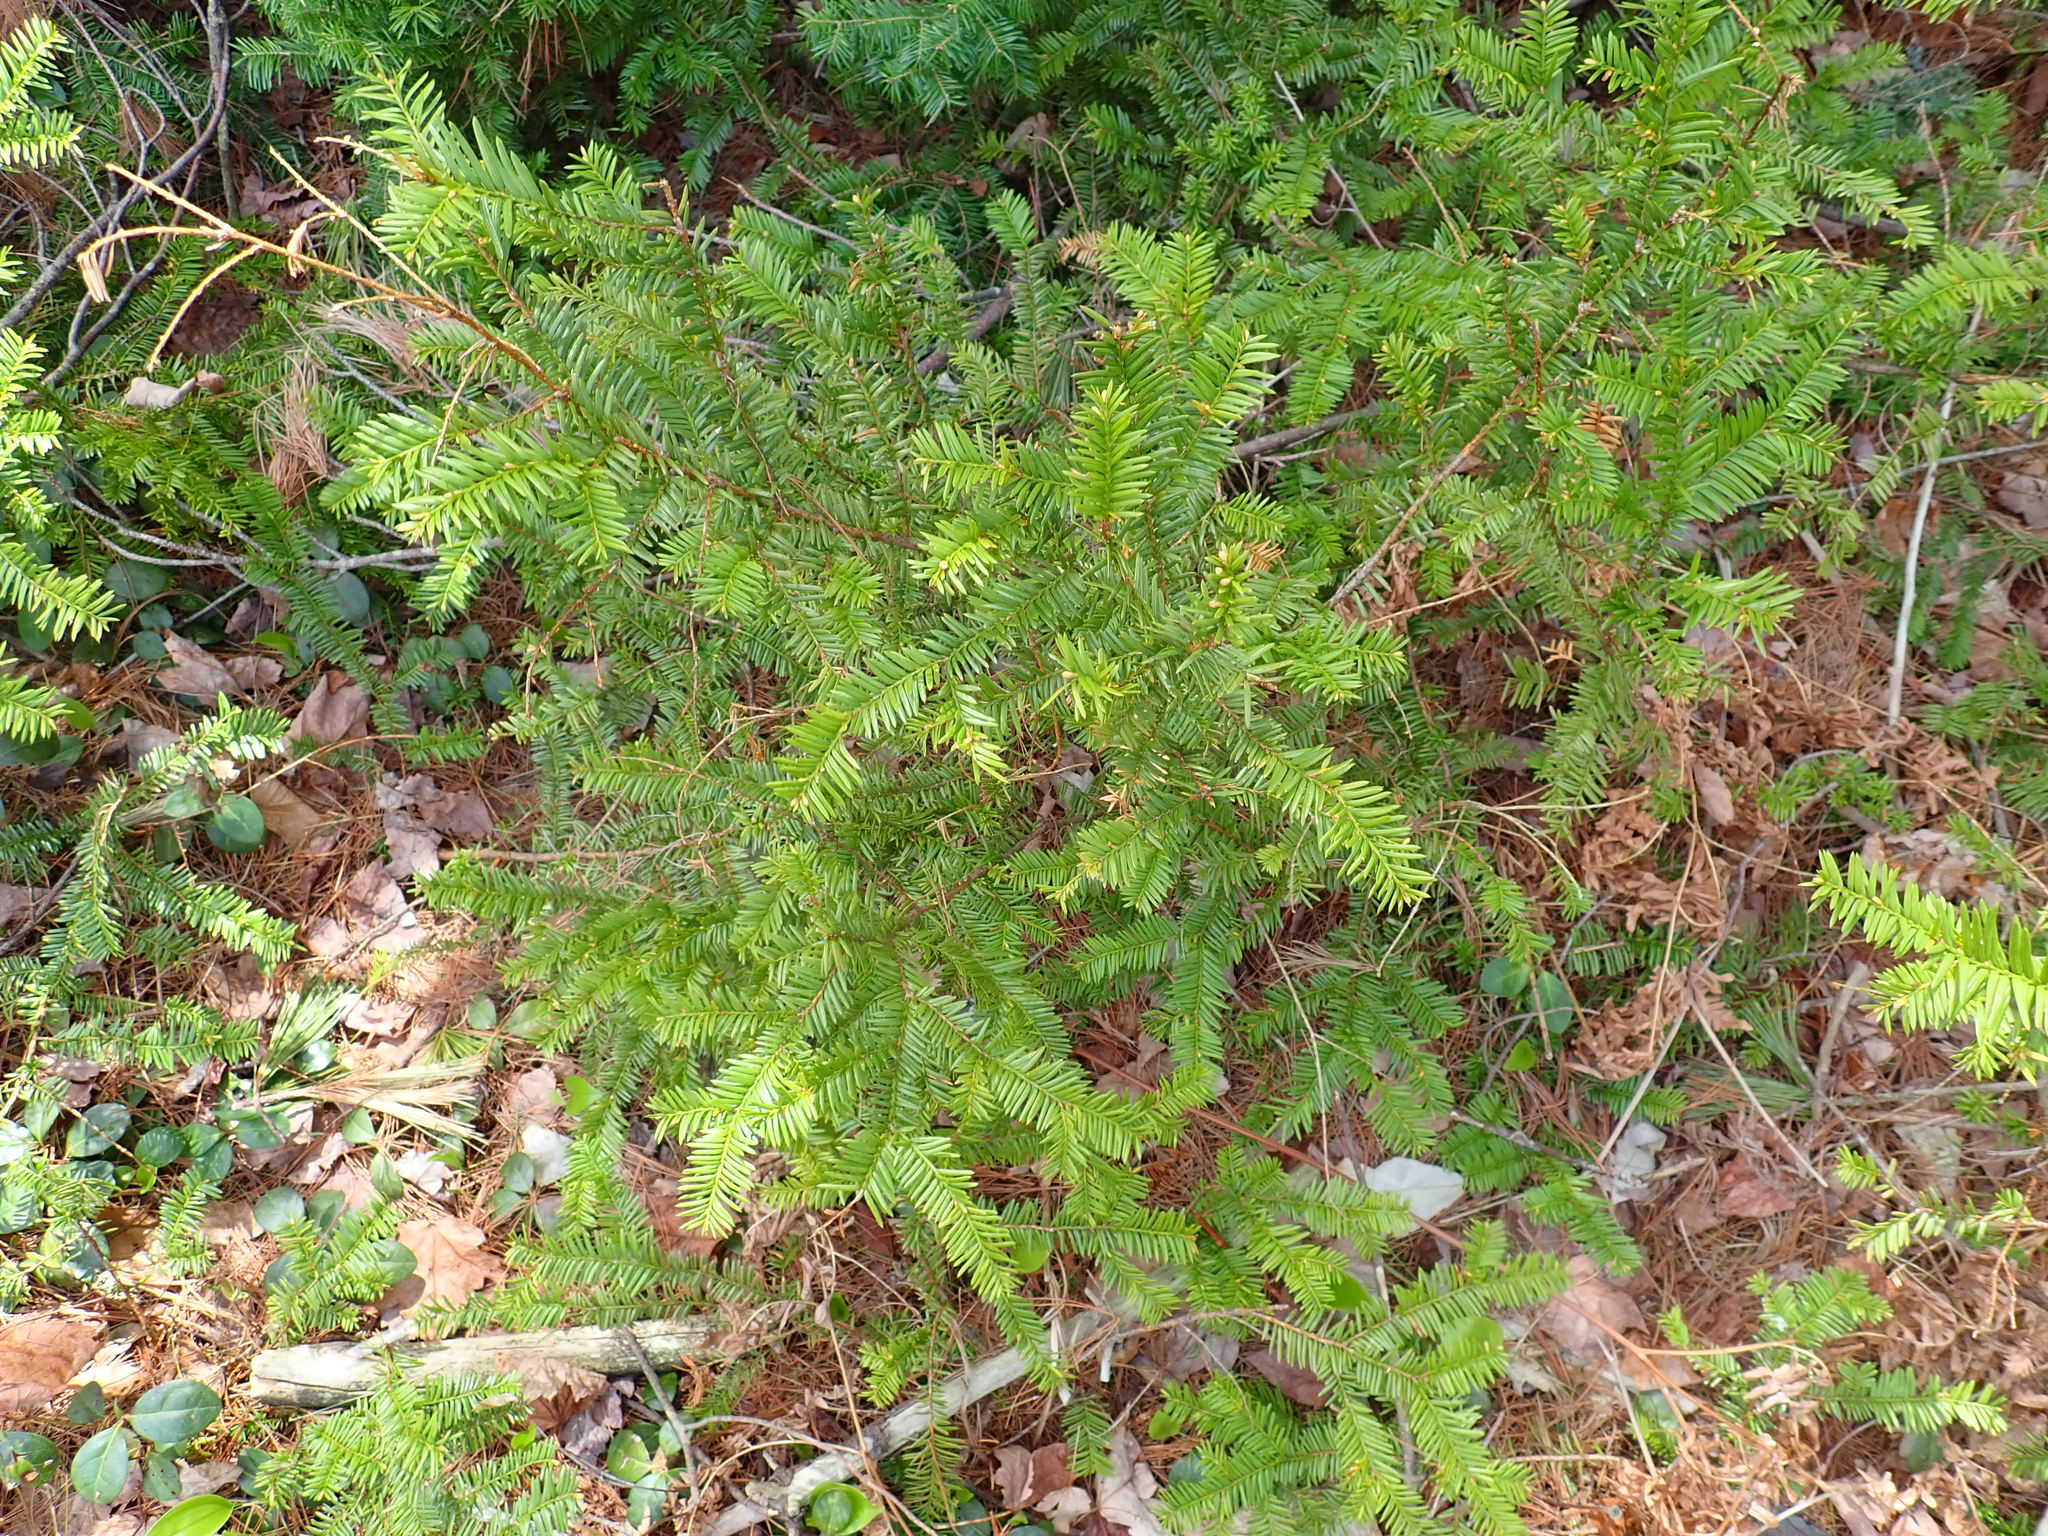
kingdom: Plantae
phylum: Tracheophyta
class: Pinopsida
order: Pinales
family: Taxaceae
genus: Taxus
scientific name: Taxus canadensis
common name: American yew
